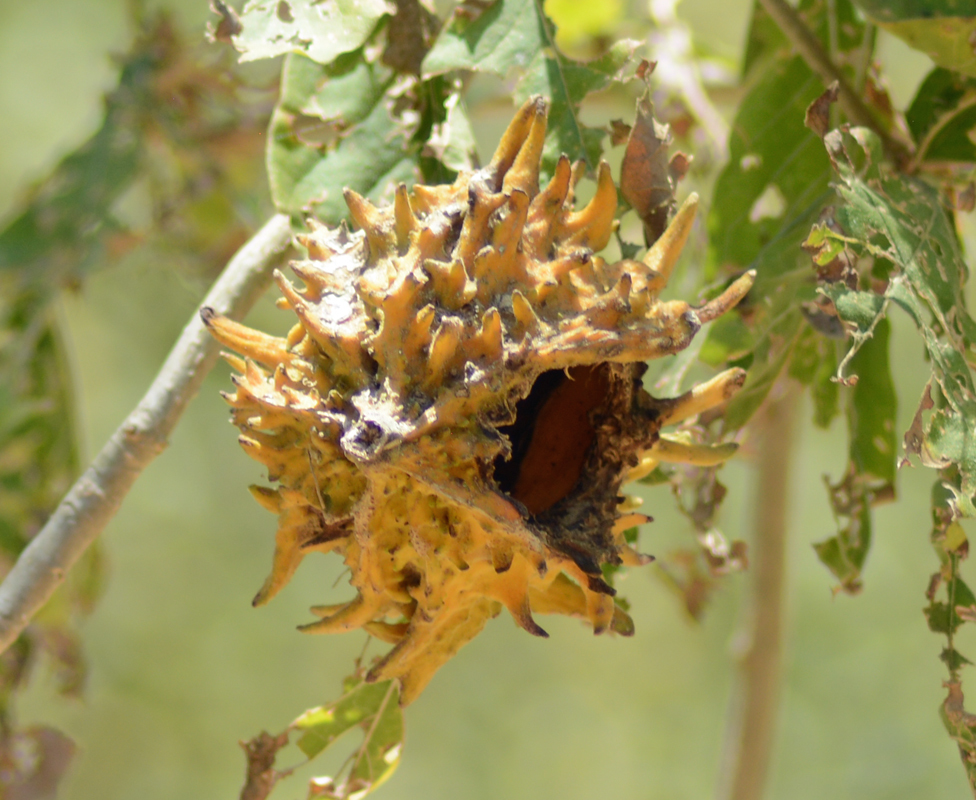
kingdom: Plantae
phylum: Tracheophyta
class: Magnoliopsida
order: Gentianales
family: Rubiaceae
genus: Randia
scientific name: Randia echinocarpa
